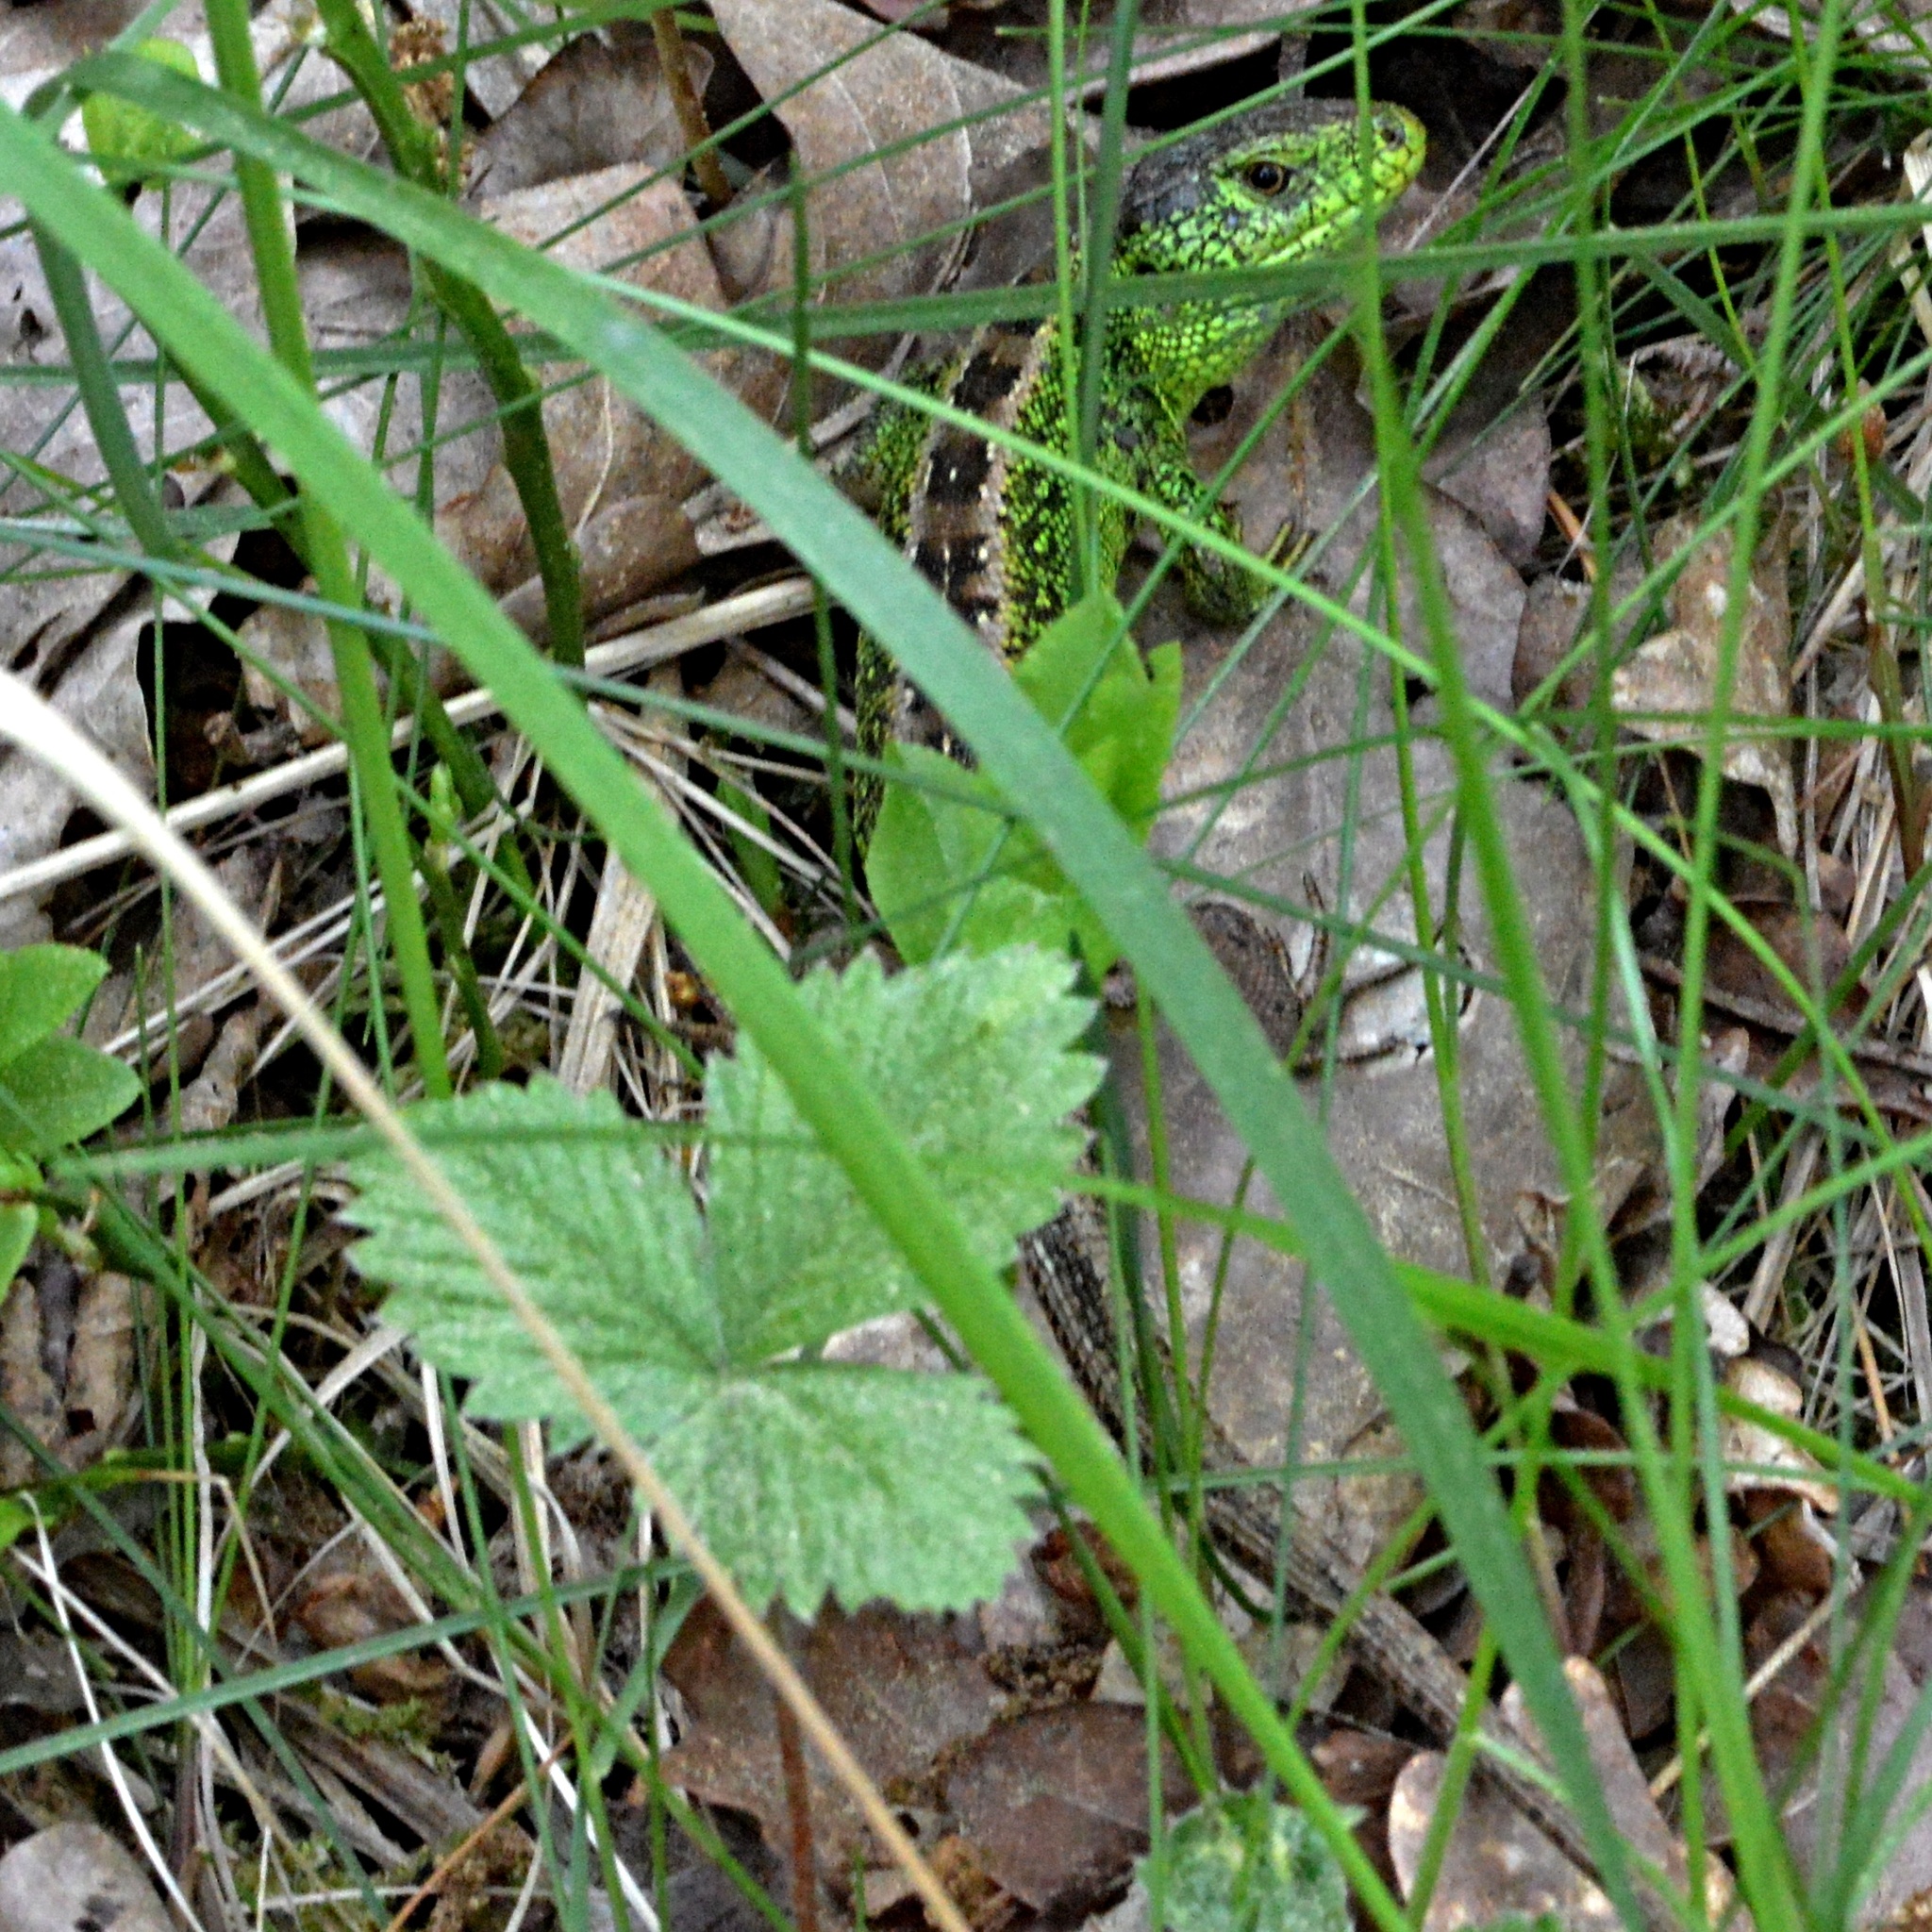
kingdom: Animalia
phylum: Chordata
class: Squamata
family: Lacertidae
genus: Lacerta
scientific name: Lacerta agilis
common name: Sand lizard
